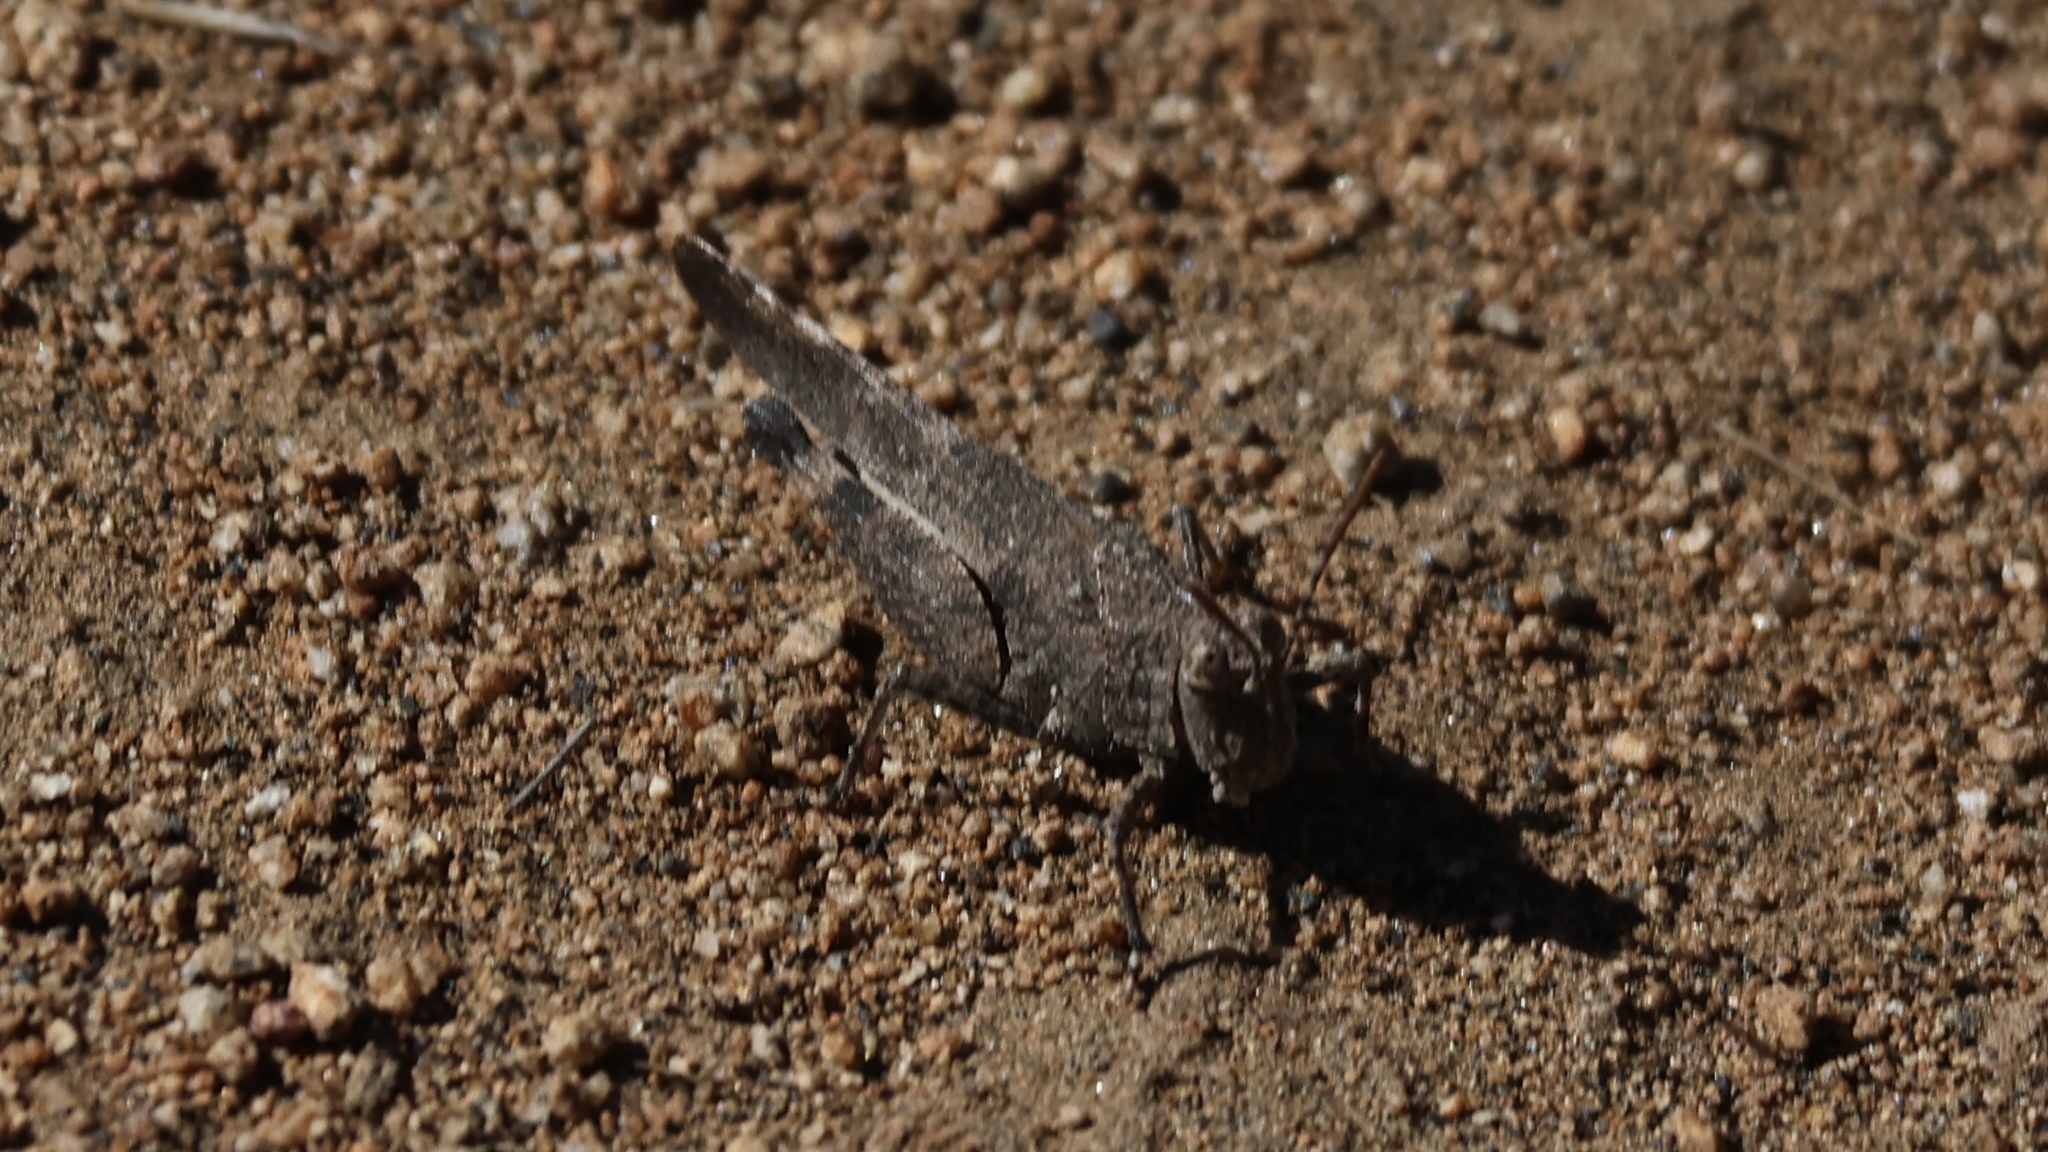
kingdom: Animalia
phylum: Arthropoda
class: Insecta
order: Orthoptera
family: Acrididae
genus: Lactista
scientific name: Lactista gibbosus
